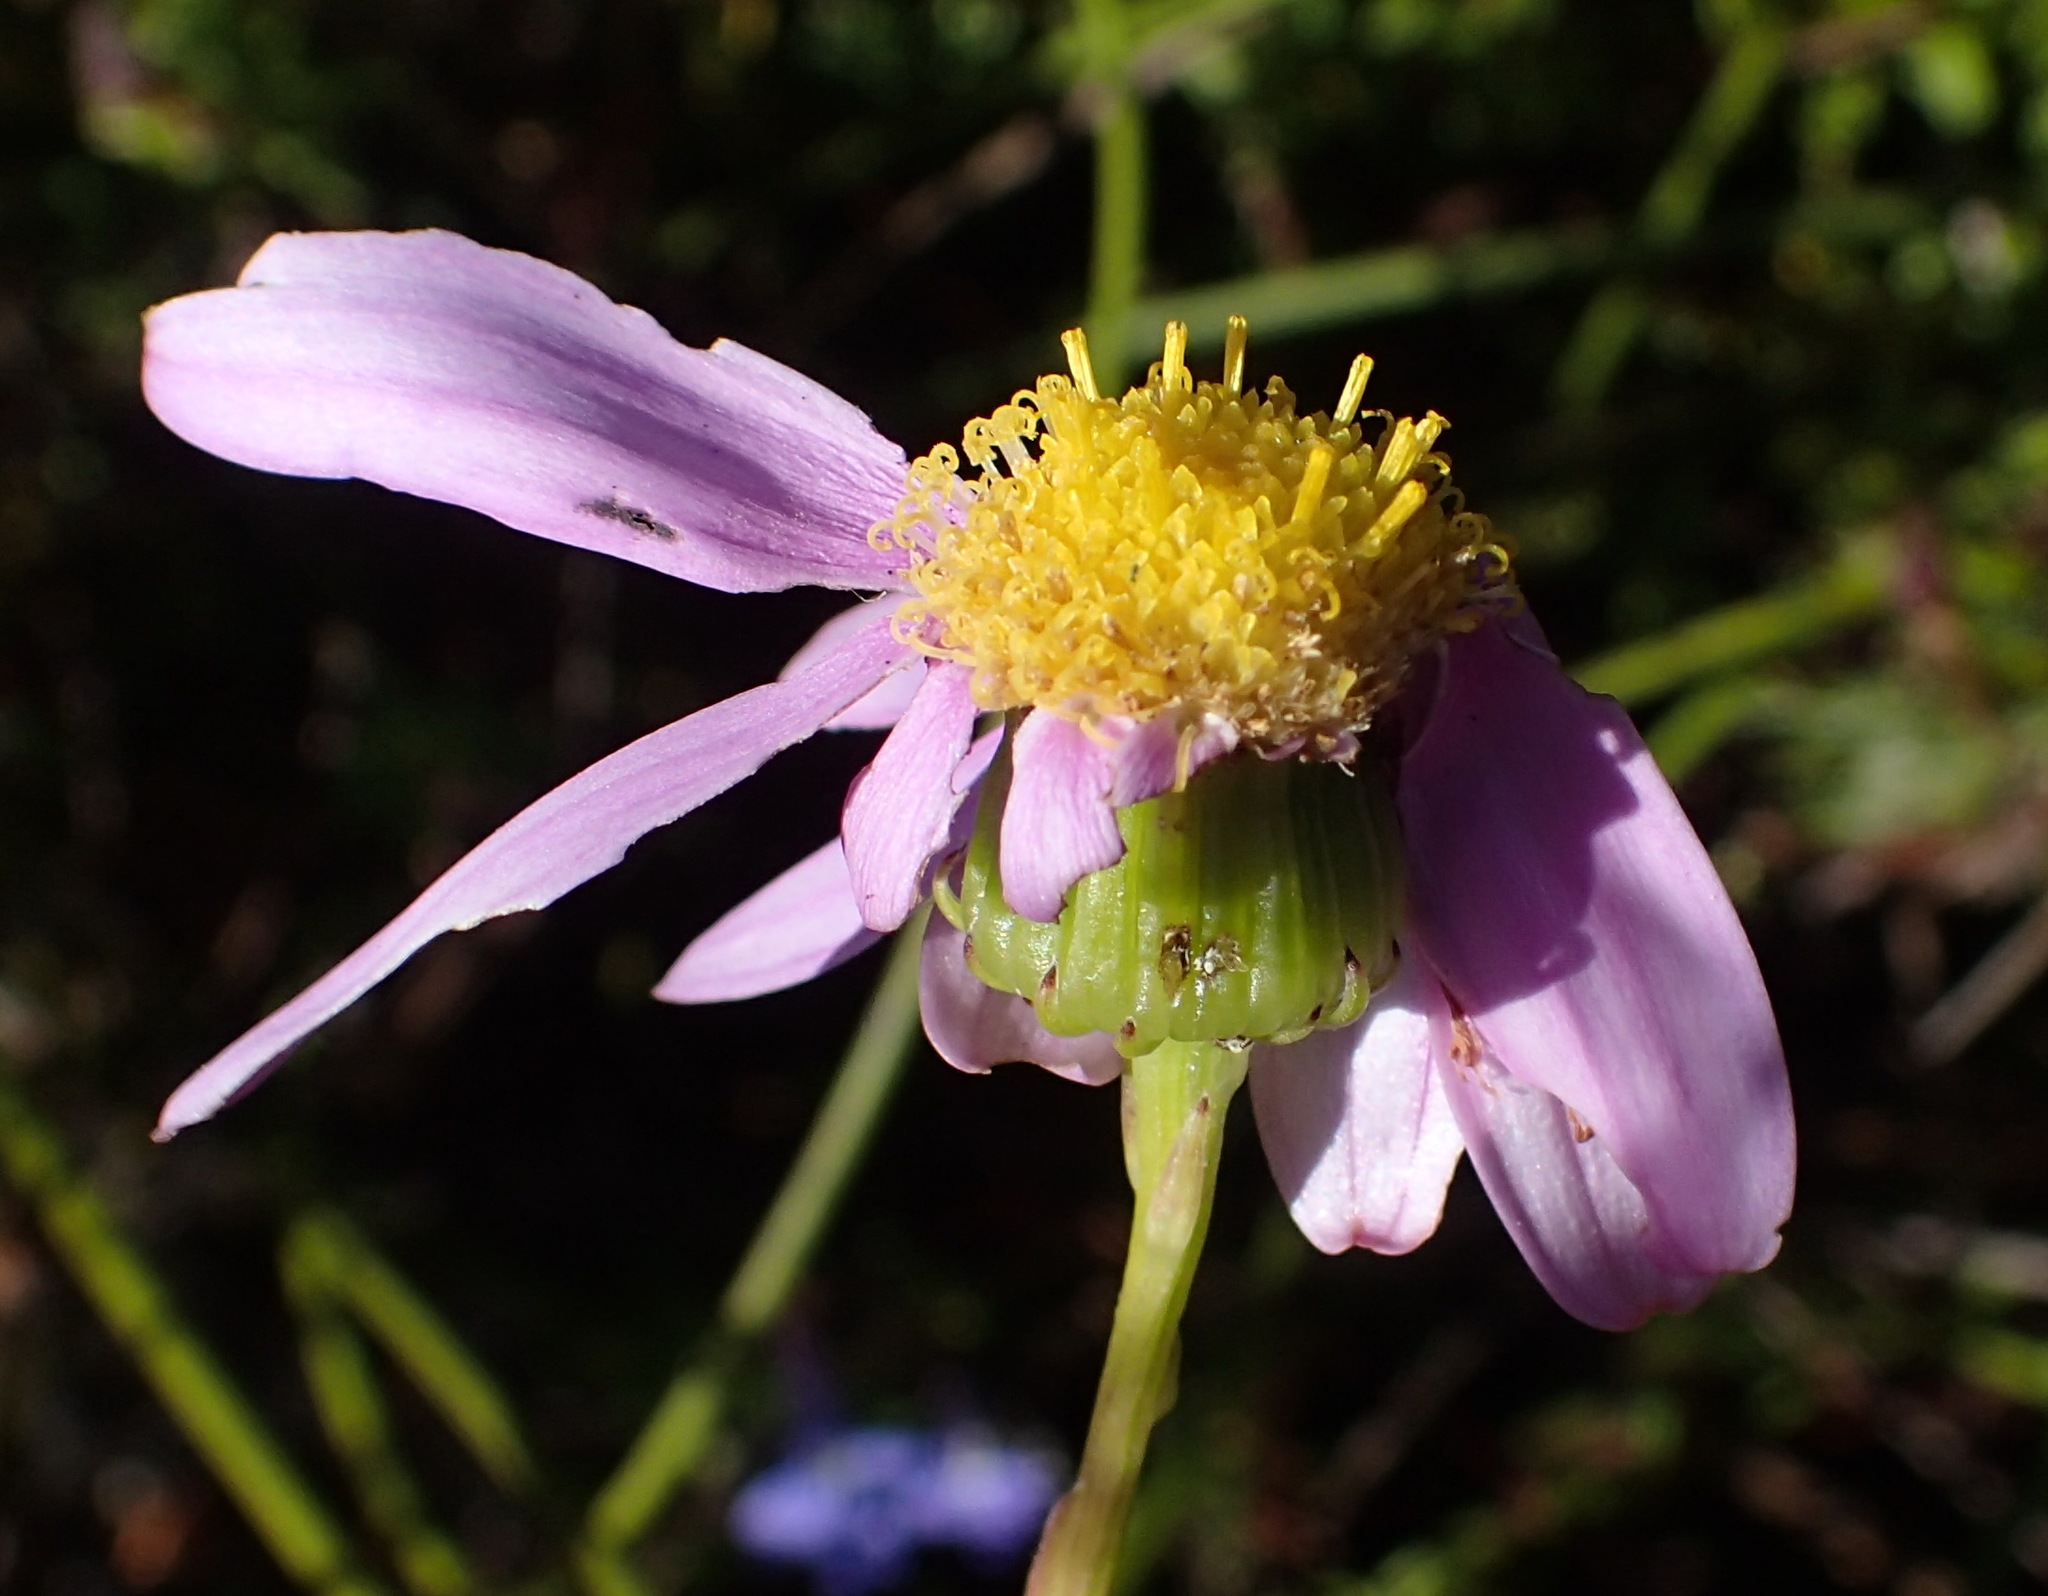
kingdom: Plantae
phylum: Tracheophyta
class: Magnoliopsida
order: Asterales
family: Asteraceae
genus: Senecio
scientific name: Senecio glastifolius
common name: Woad-leaved ragwort
